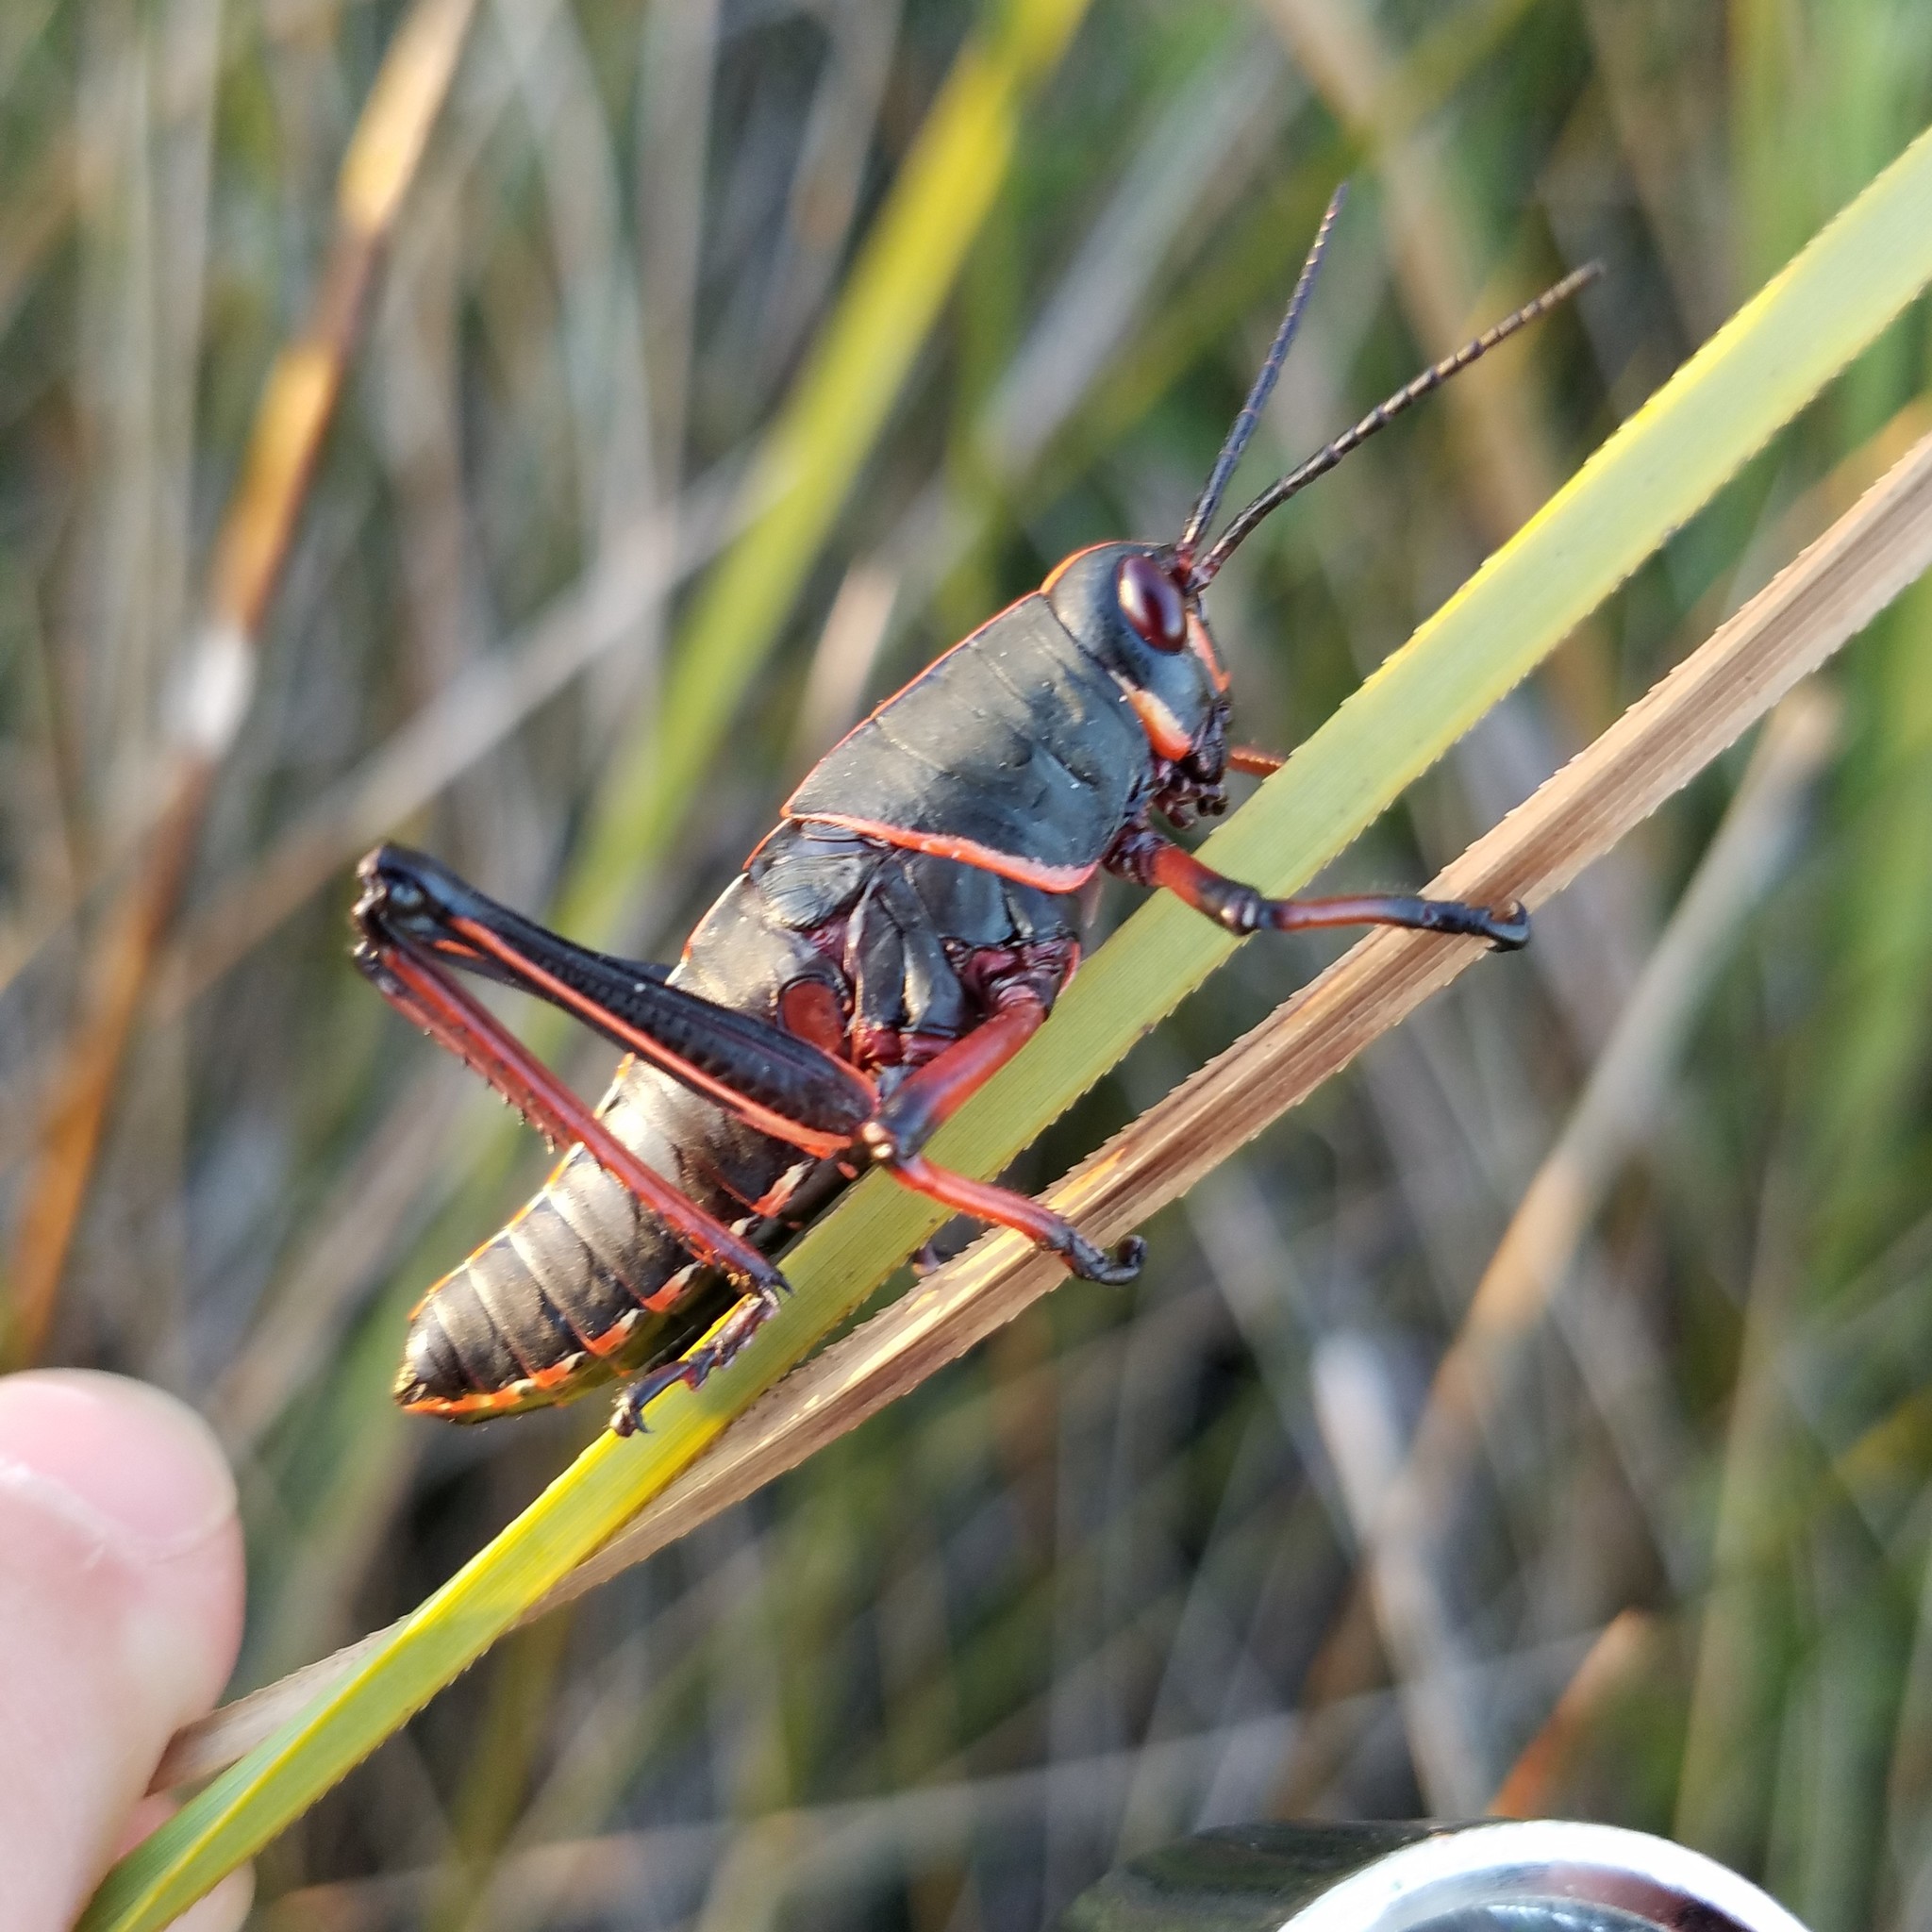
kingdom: Animalia
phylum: Arthropoda
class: Insecta
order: Orthoptera
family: Romaleidae
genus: Romalea
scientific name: Romalea microptera
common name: Eastern lubber grasshopper
